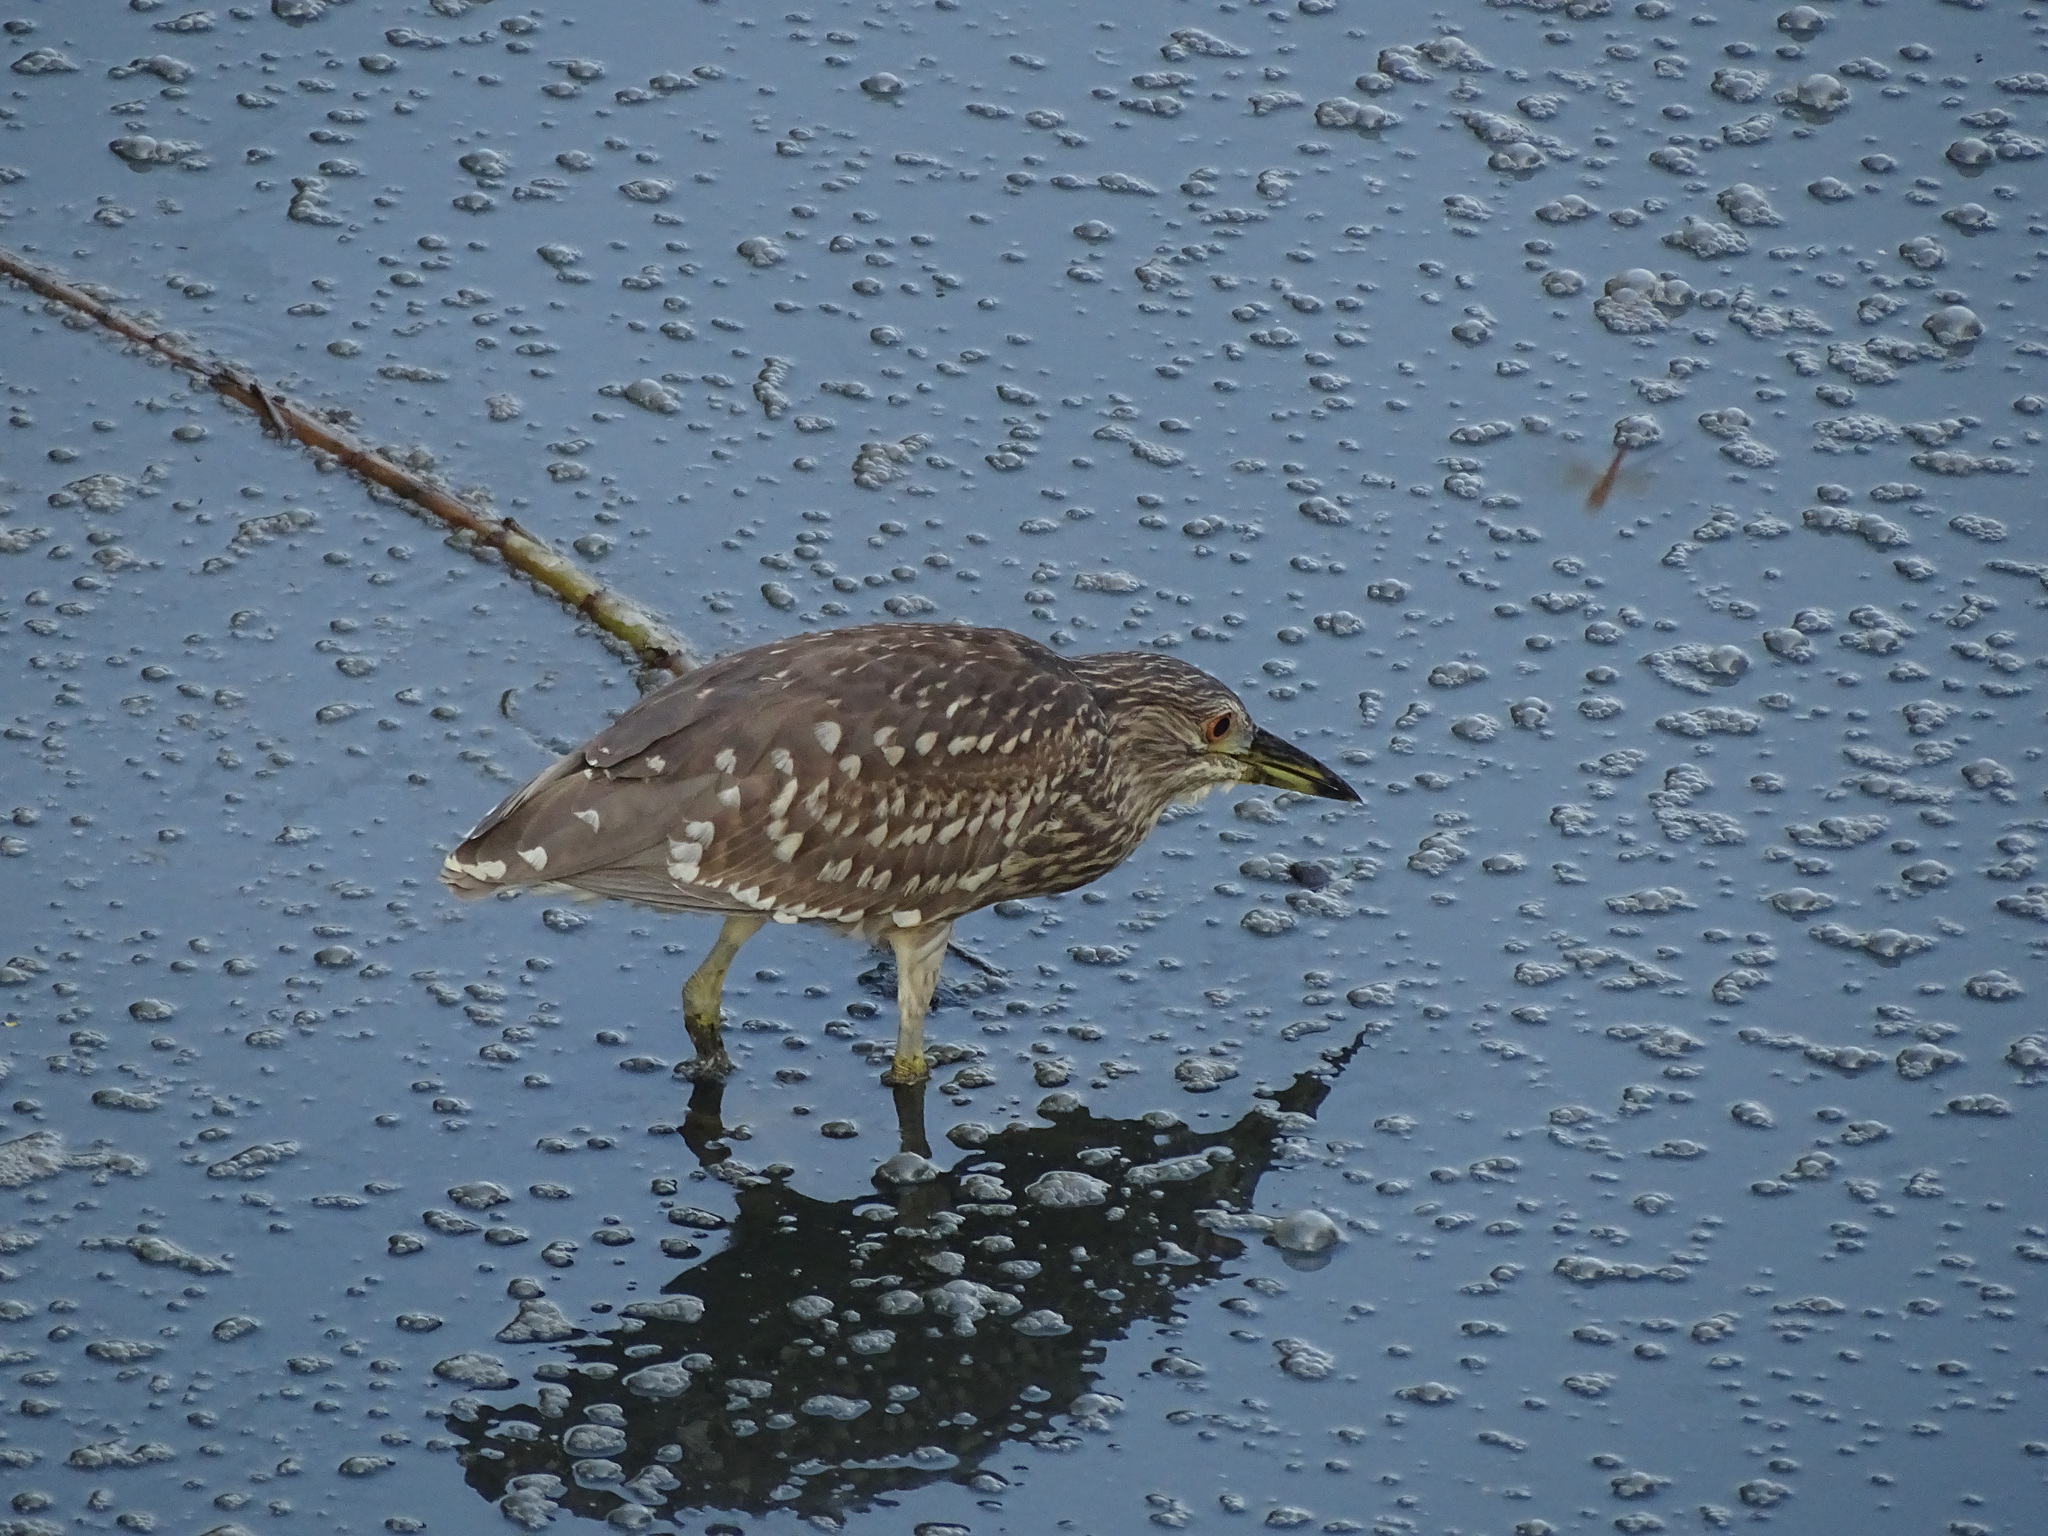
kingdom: Animalia
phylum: Chordata
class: Aves
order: Pelecaniformes
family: Ardeidae
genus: Nycticorax
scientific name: Nycticorax nycticorax
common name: Black-crowned night heron
